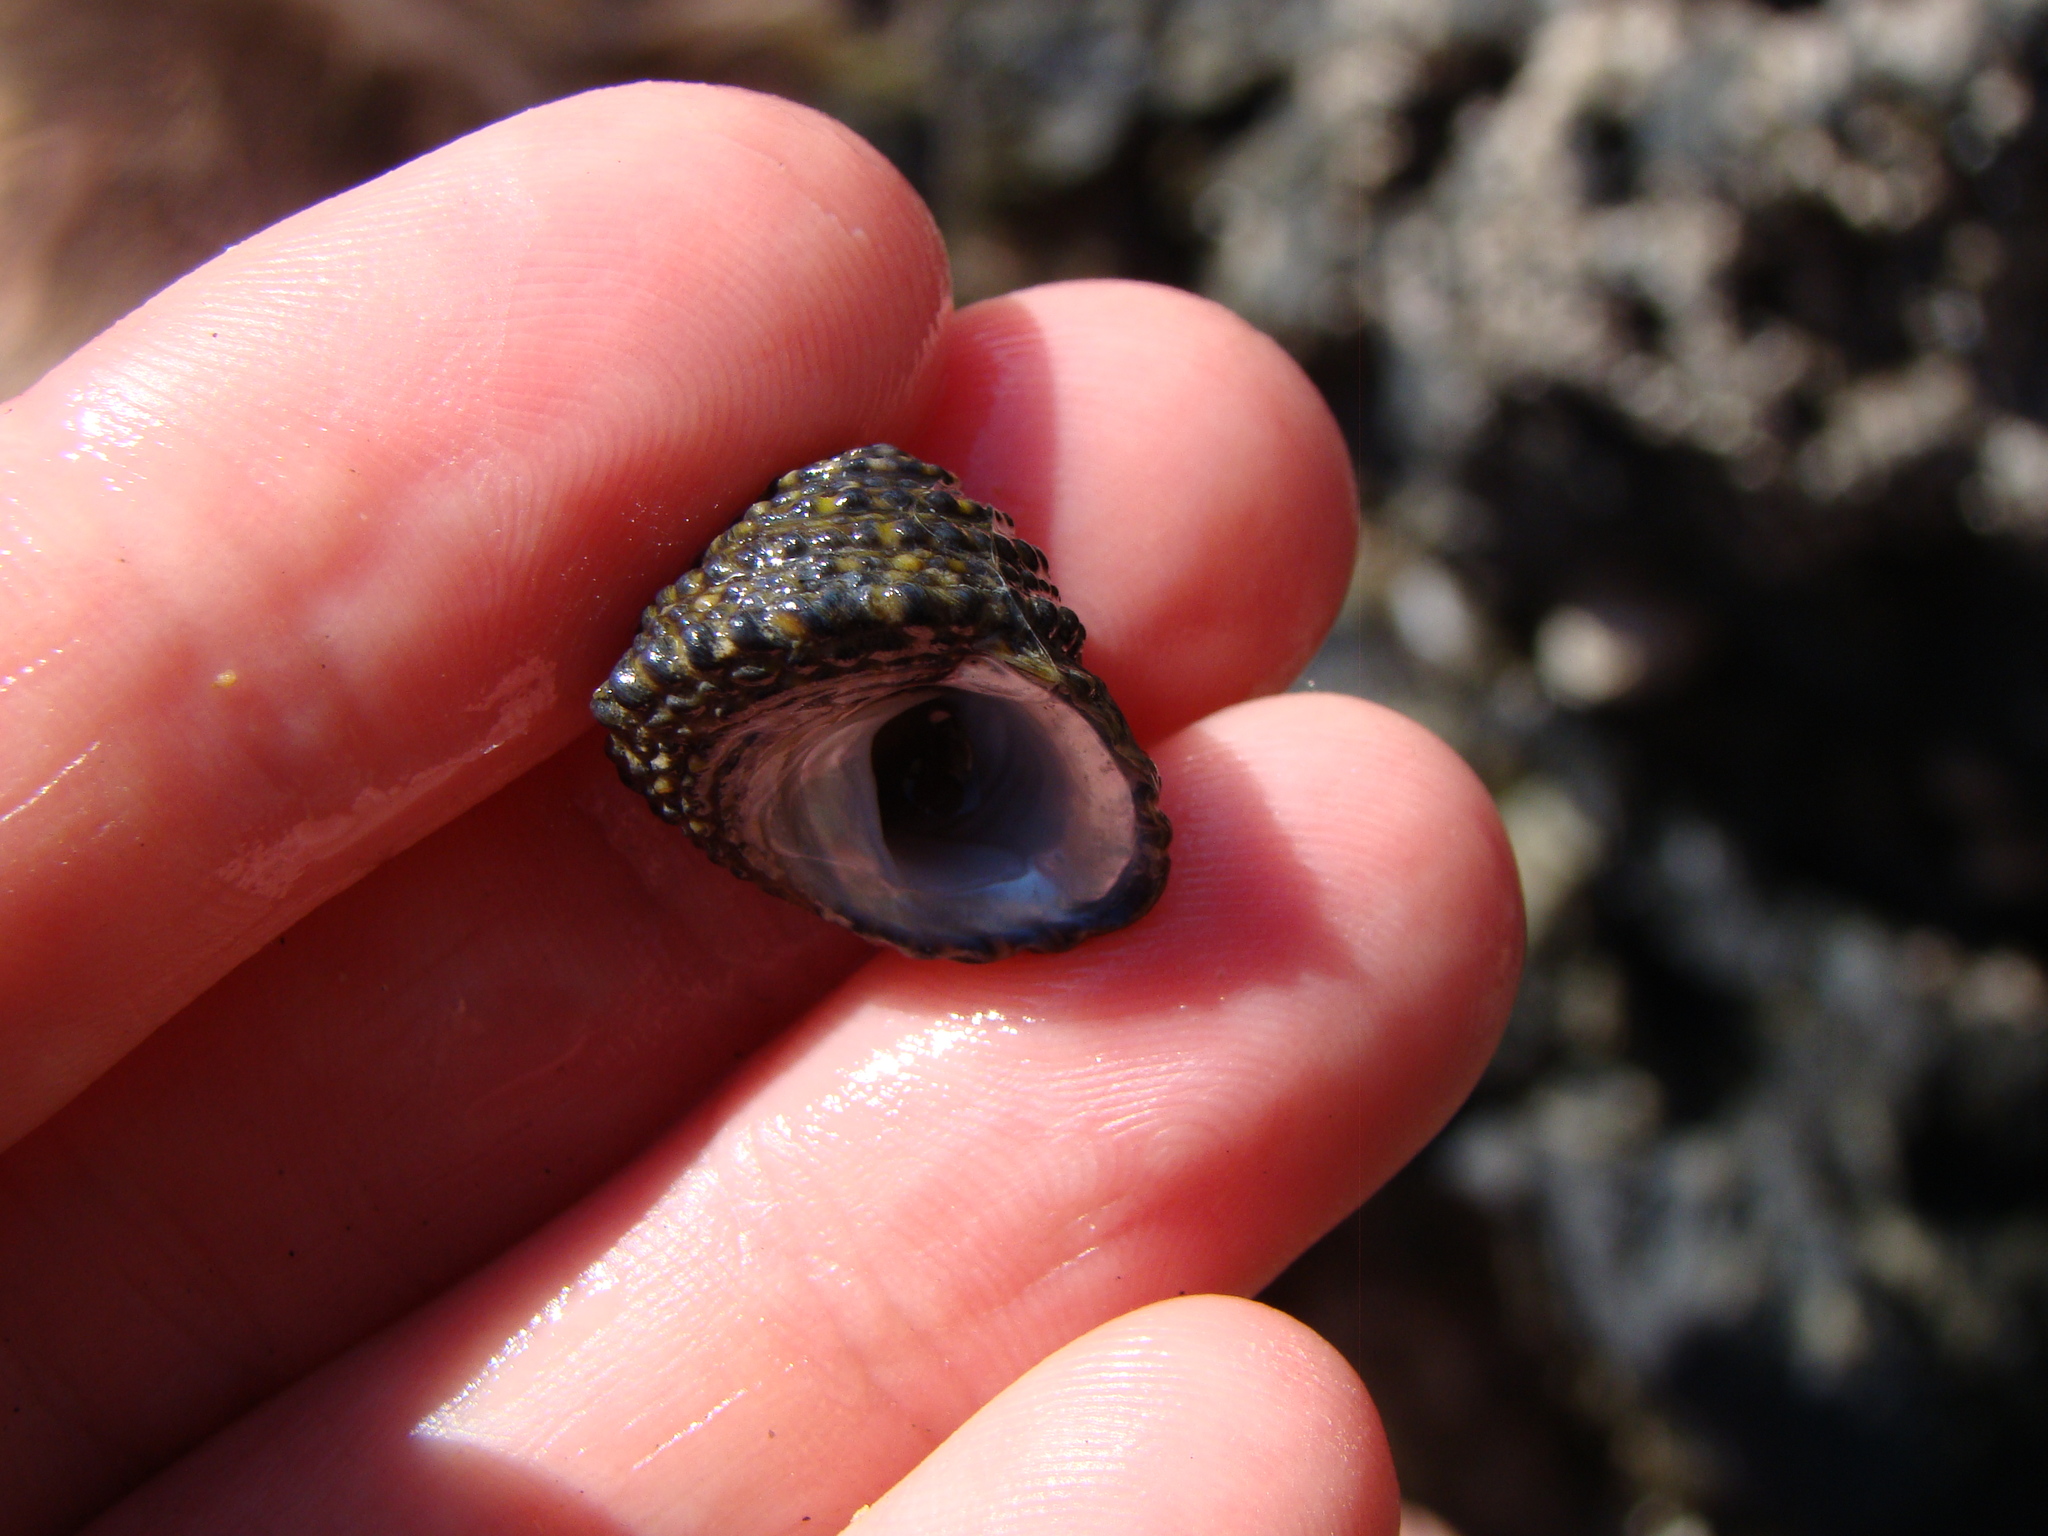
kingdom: Animalia
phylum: Mollusca
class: Gastropoda
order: Trochida
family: Trochidae
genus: Diloma
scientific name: Diloma bicanaliculatum
